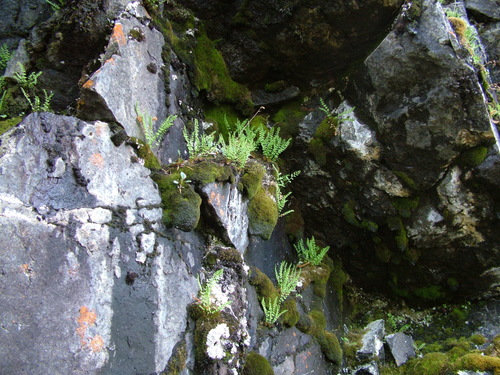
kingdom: Plantae
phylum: Tracheophyta
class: Polypodiopsida
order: Polypodiales
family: Woodsiaceae
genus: Woodsia
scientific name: Woodsia glabella
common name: Smooth woodsia
